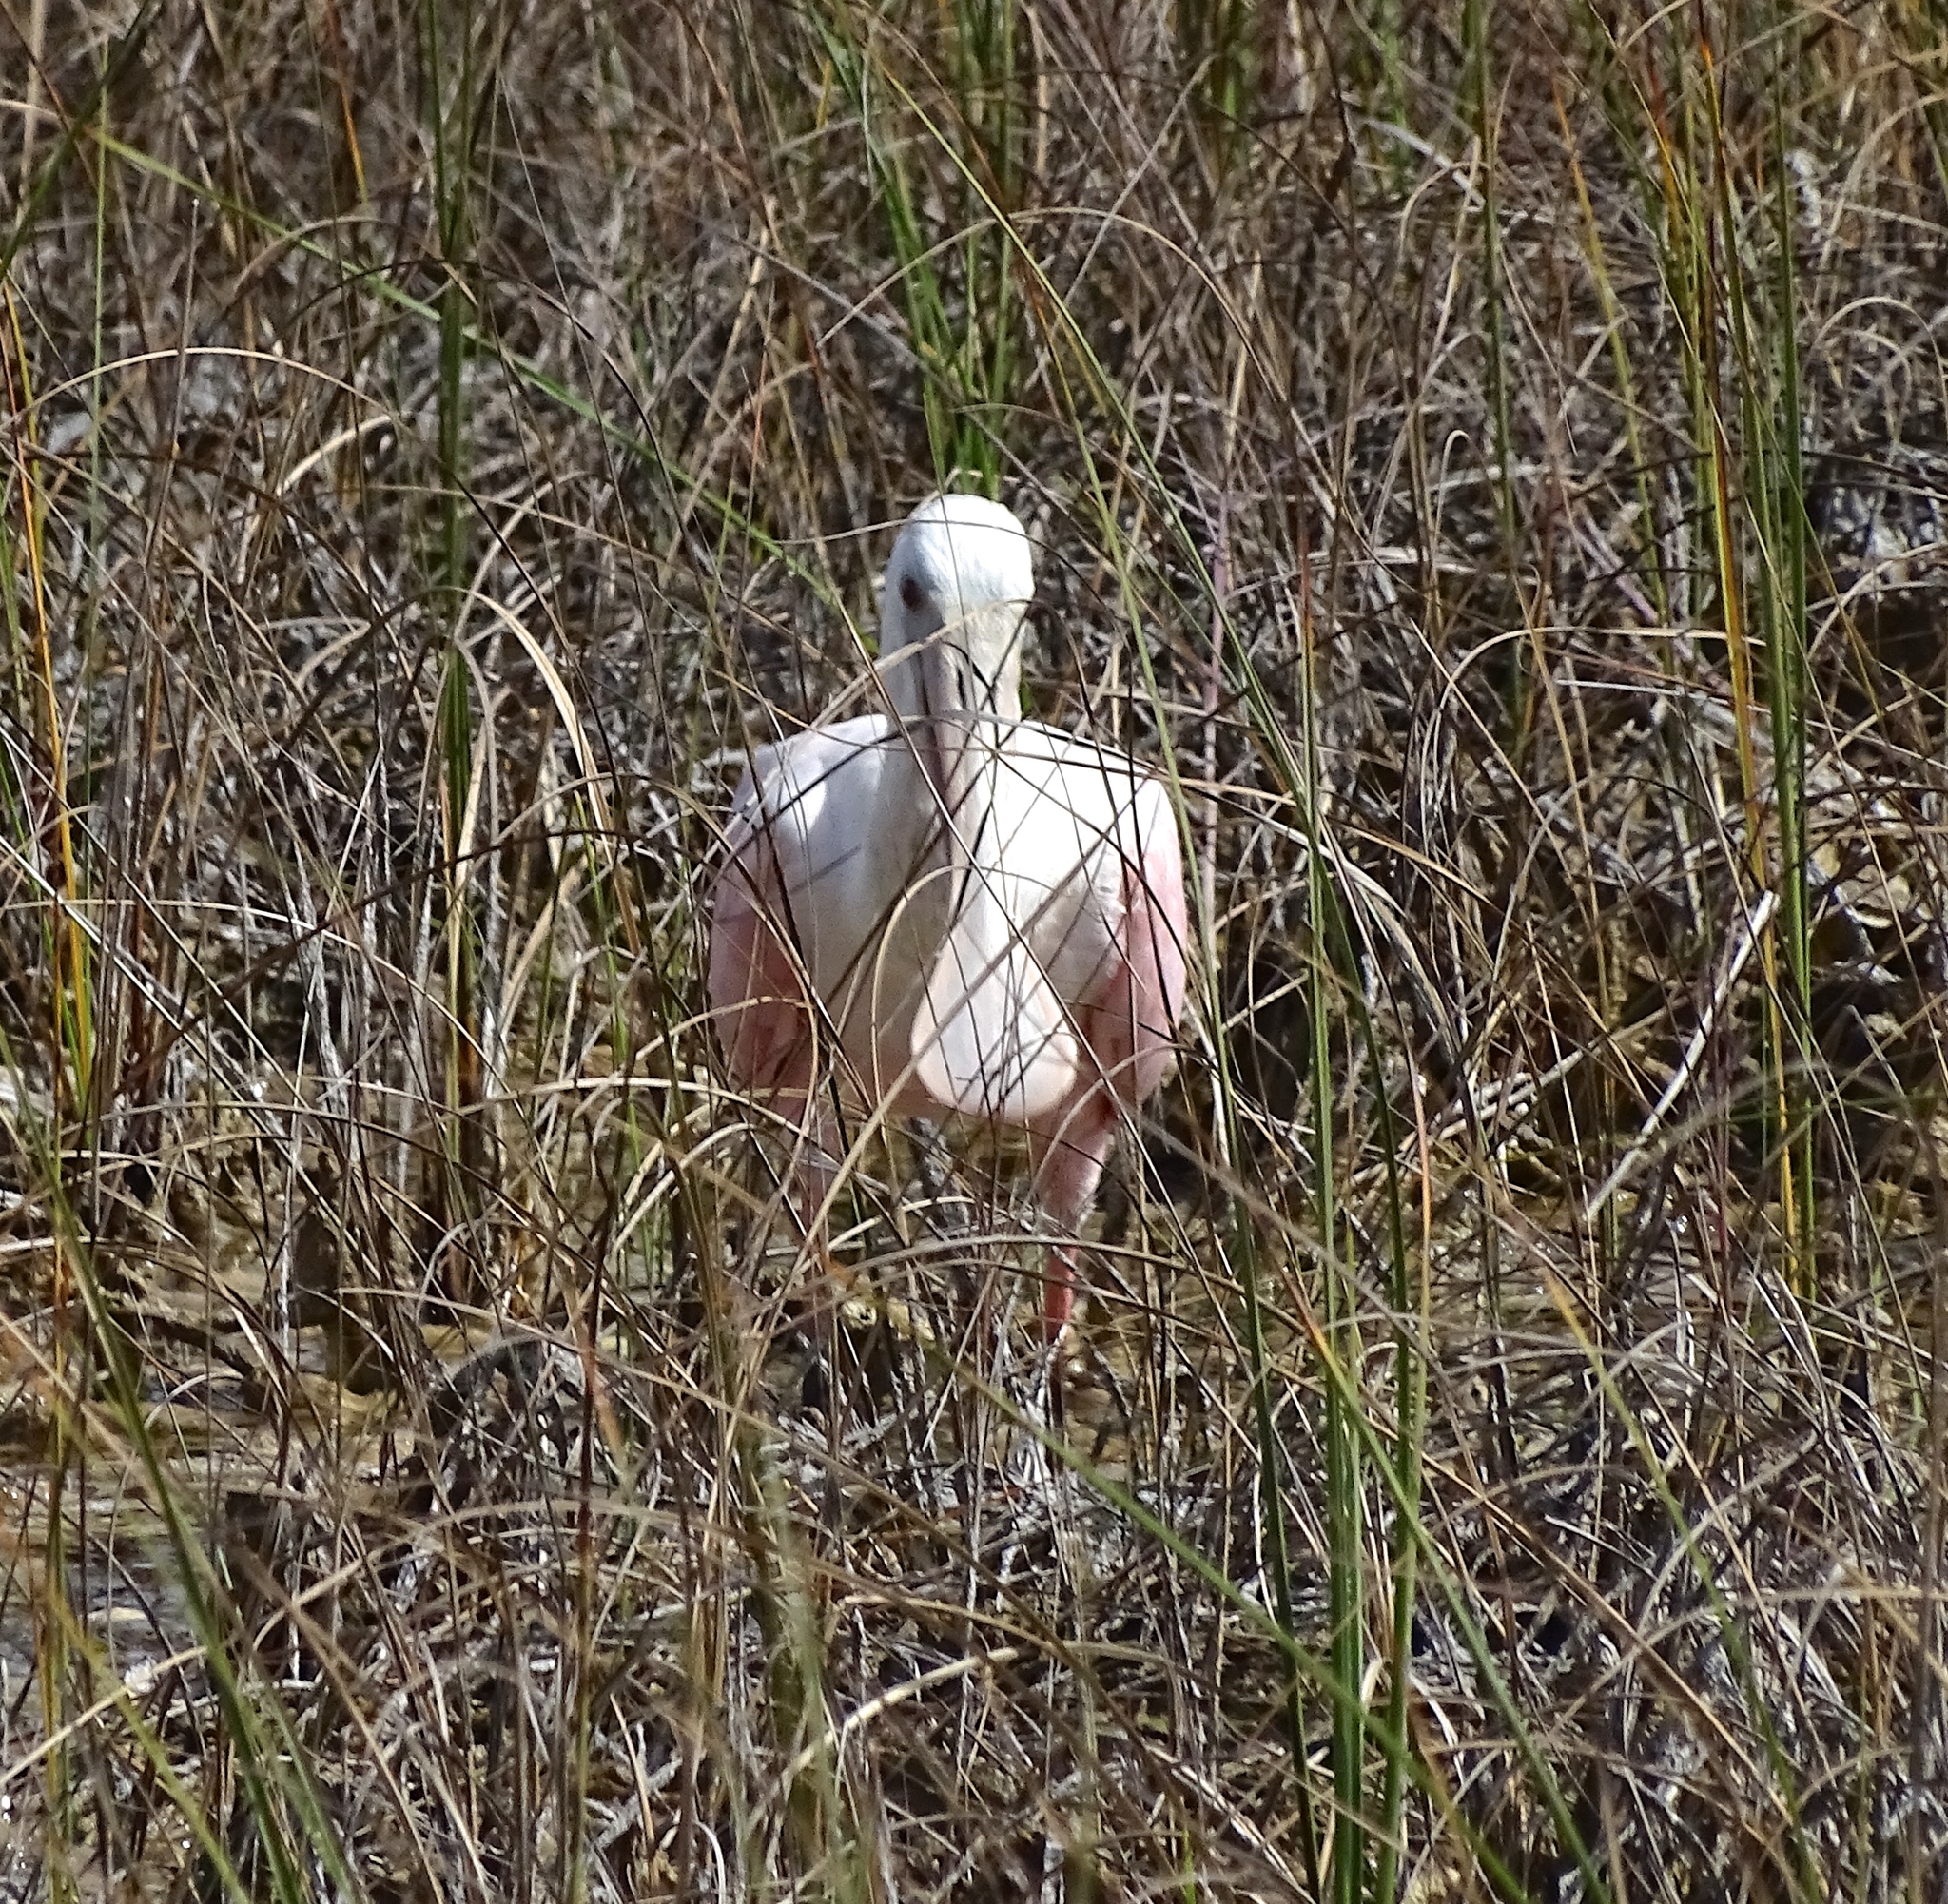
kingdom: Animalia
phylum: Chordata
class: Aves
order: Pelecaniformes
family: Threskiornithidae
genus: Platalea
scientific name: Platalea ajaja
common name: Roseate spoonbill
